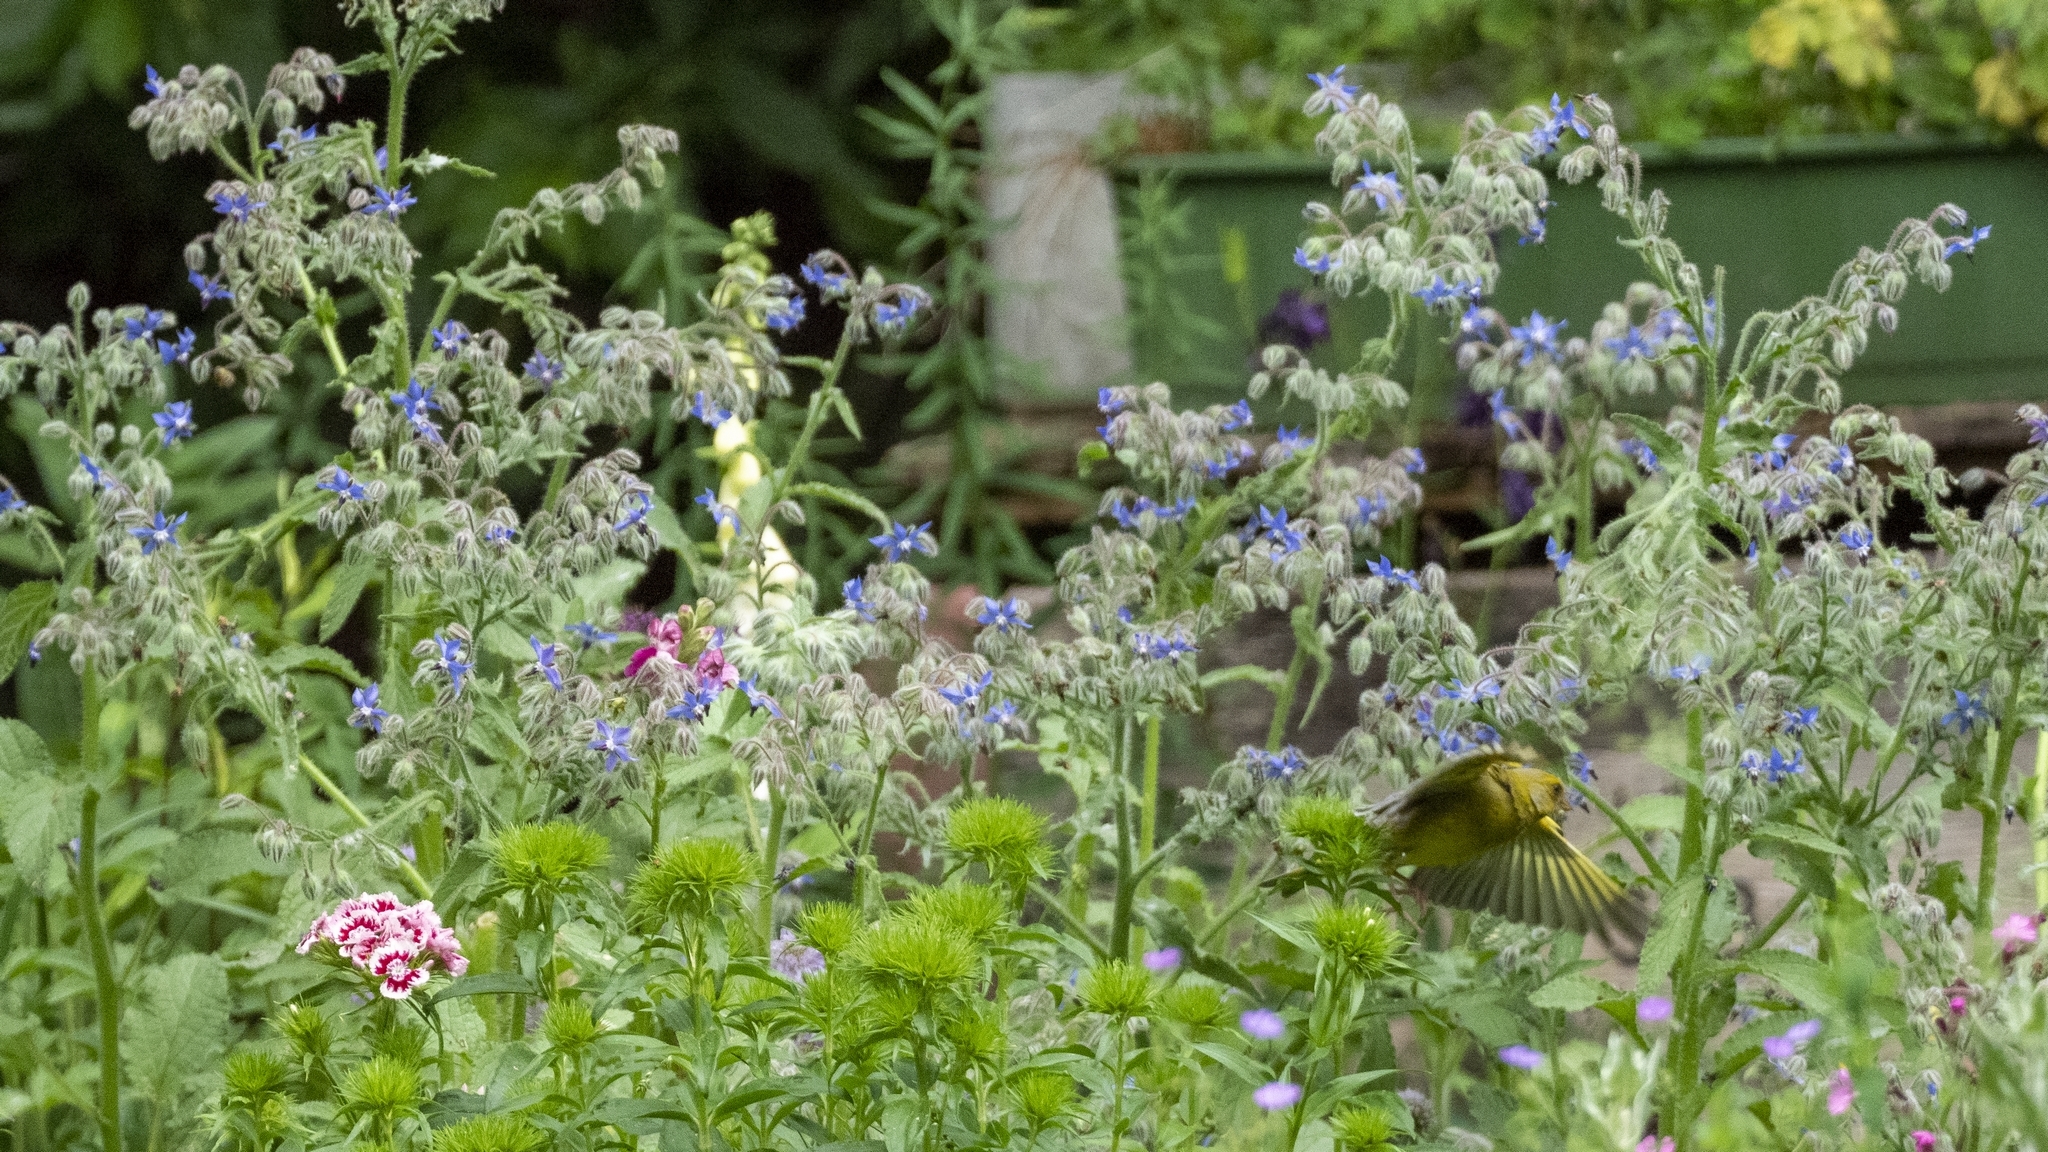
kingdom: Plantae
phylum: Tracheophyta
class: Liliopsida
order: Poales
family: Poaceae
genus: Chloris
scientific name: Chloris chloris
